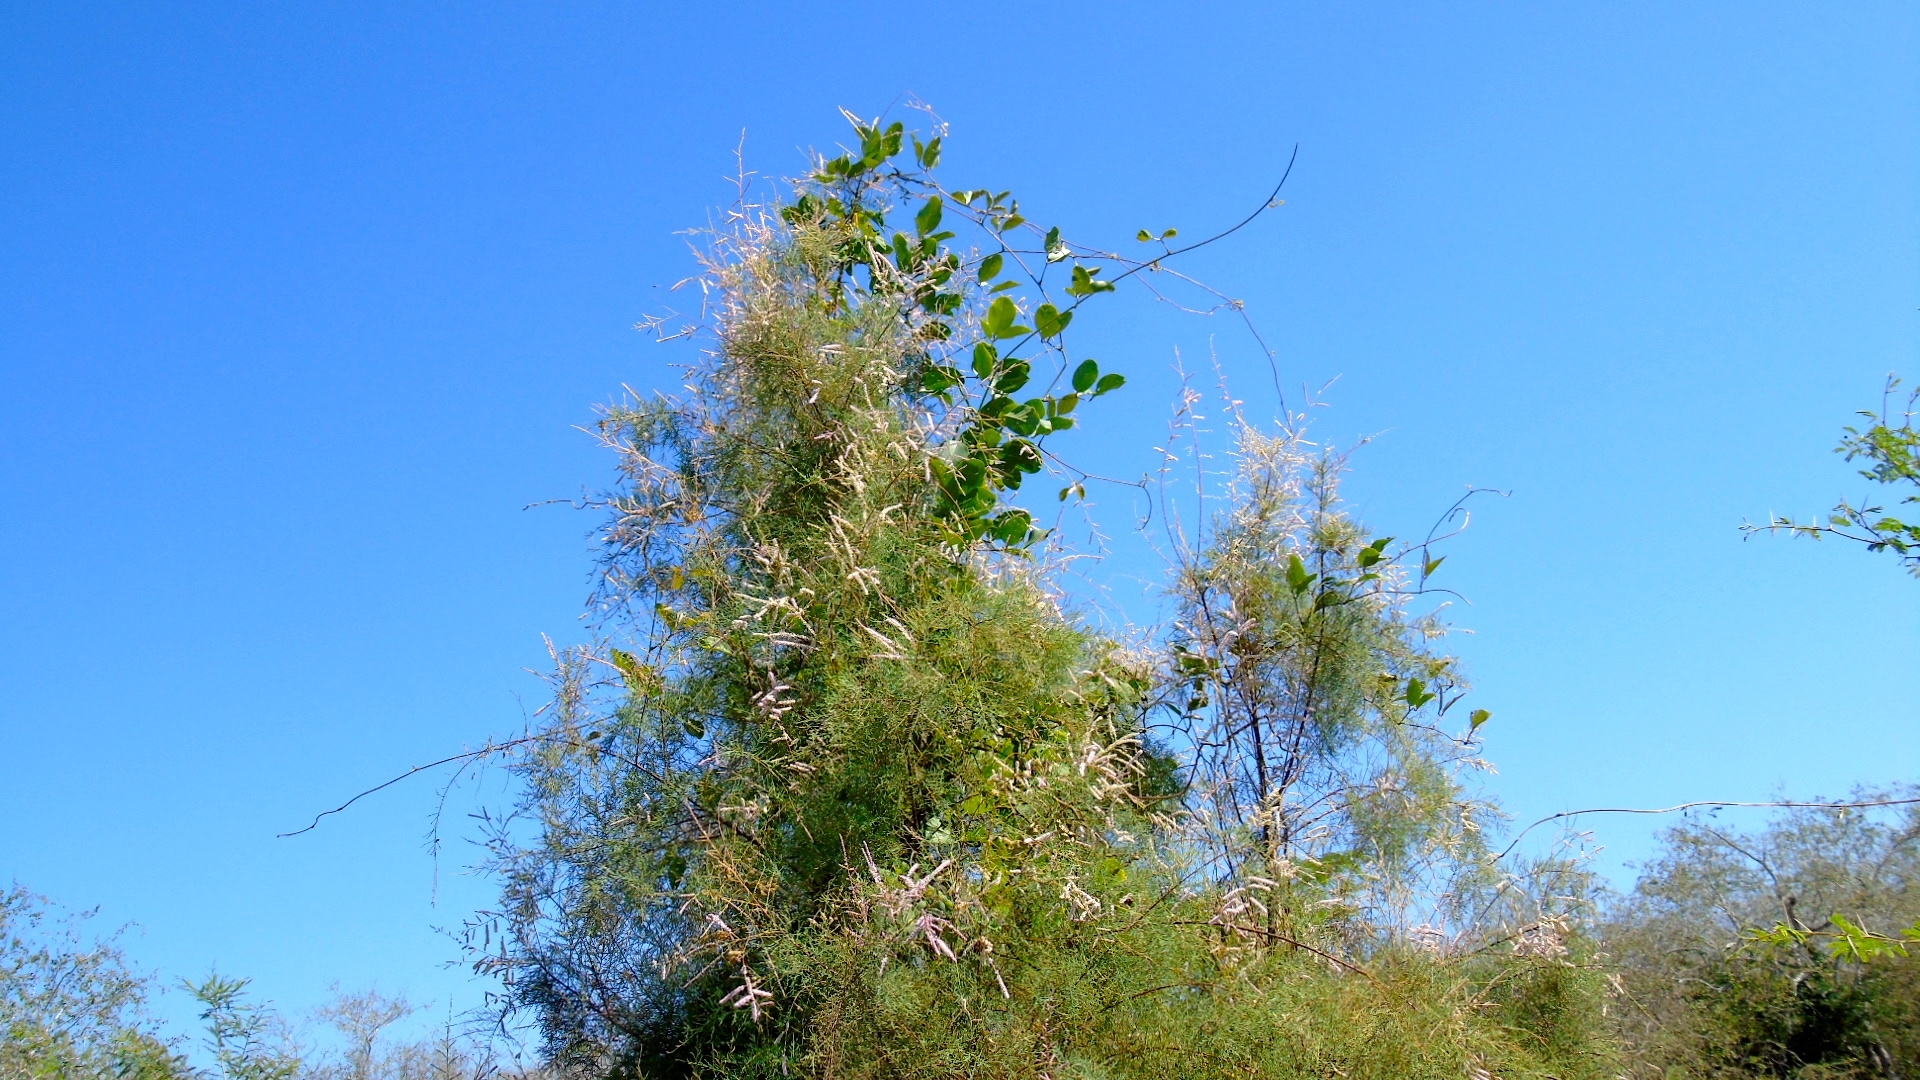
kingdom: Plantae
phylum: Tracheophyta
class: Magnoliopsida
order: Caryophyllales
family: Tamaricaceae
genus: Tamarix
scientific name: Tamarix
